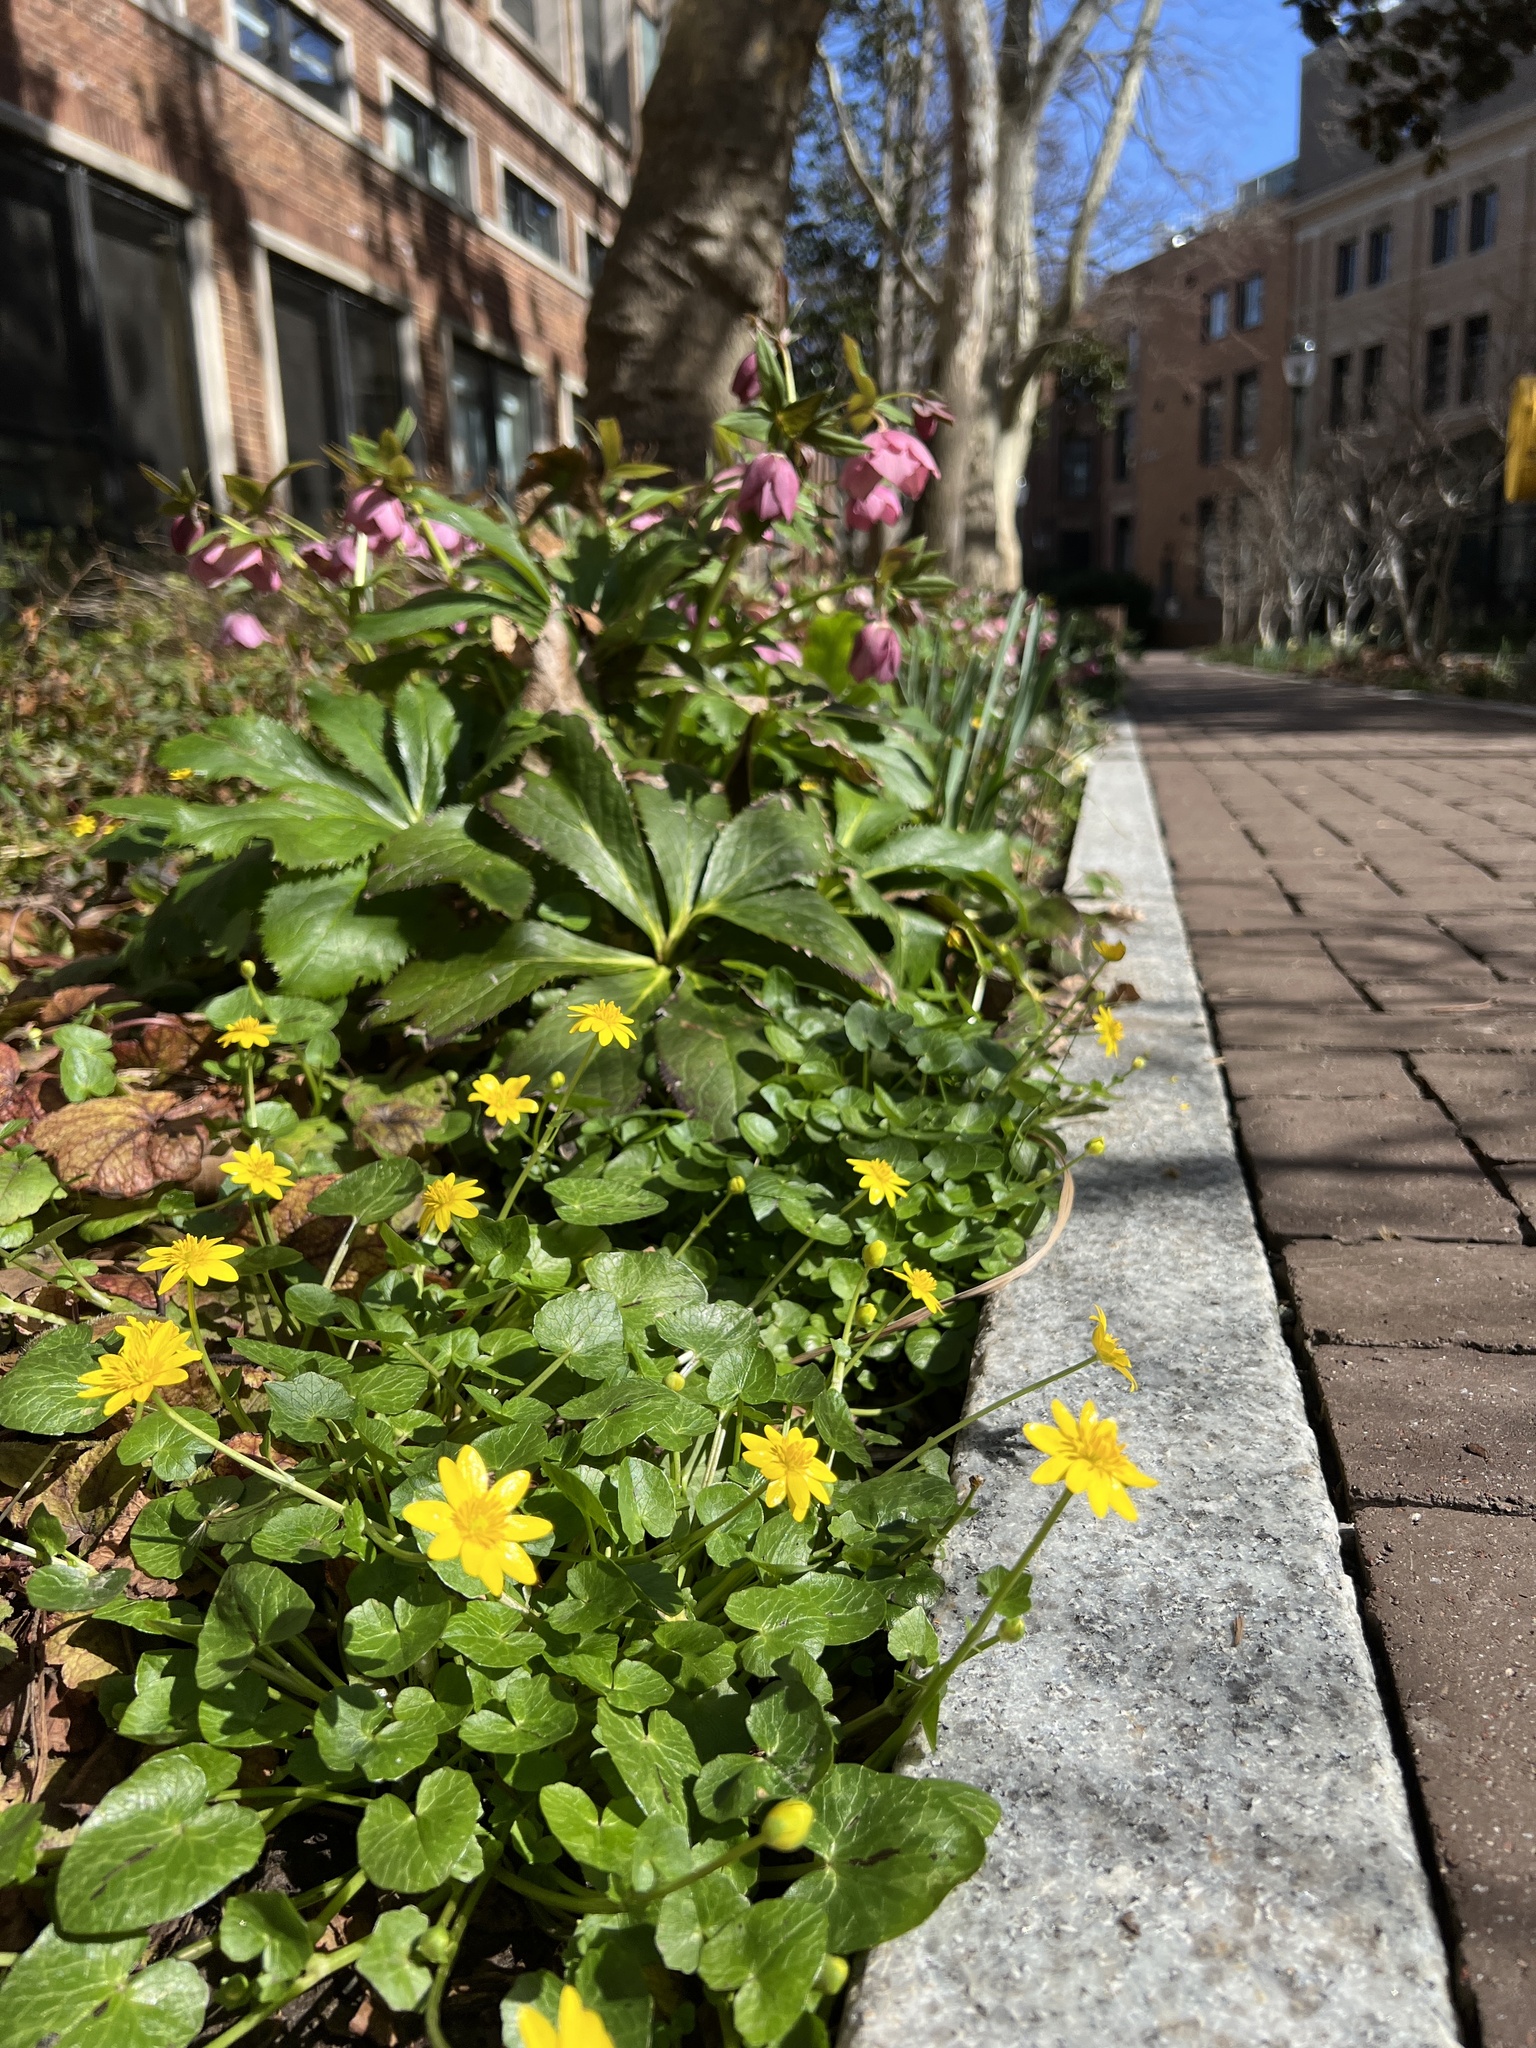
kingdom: Plantae
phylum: Tracheophyta
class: Magnoliopsida
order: Ranunculales
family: Ranunculaceae
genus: Ficaria
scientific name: Ficaria verna
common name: Lesser celandine
